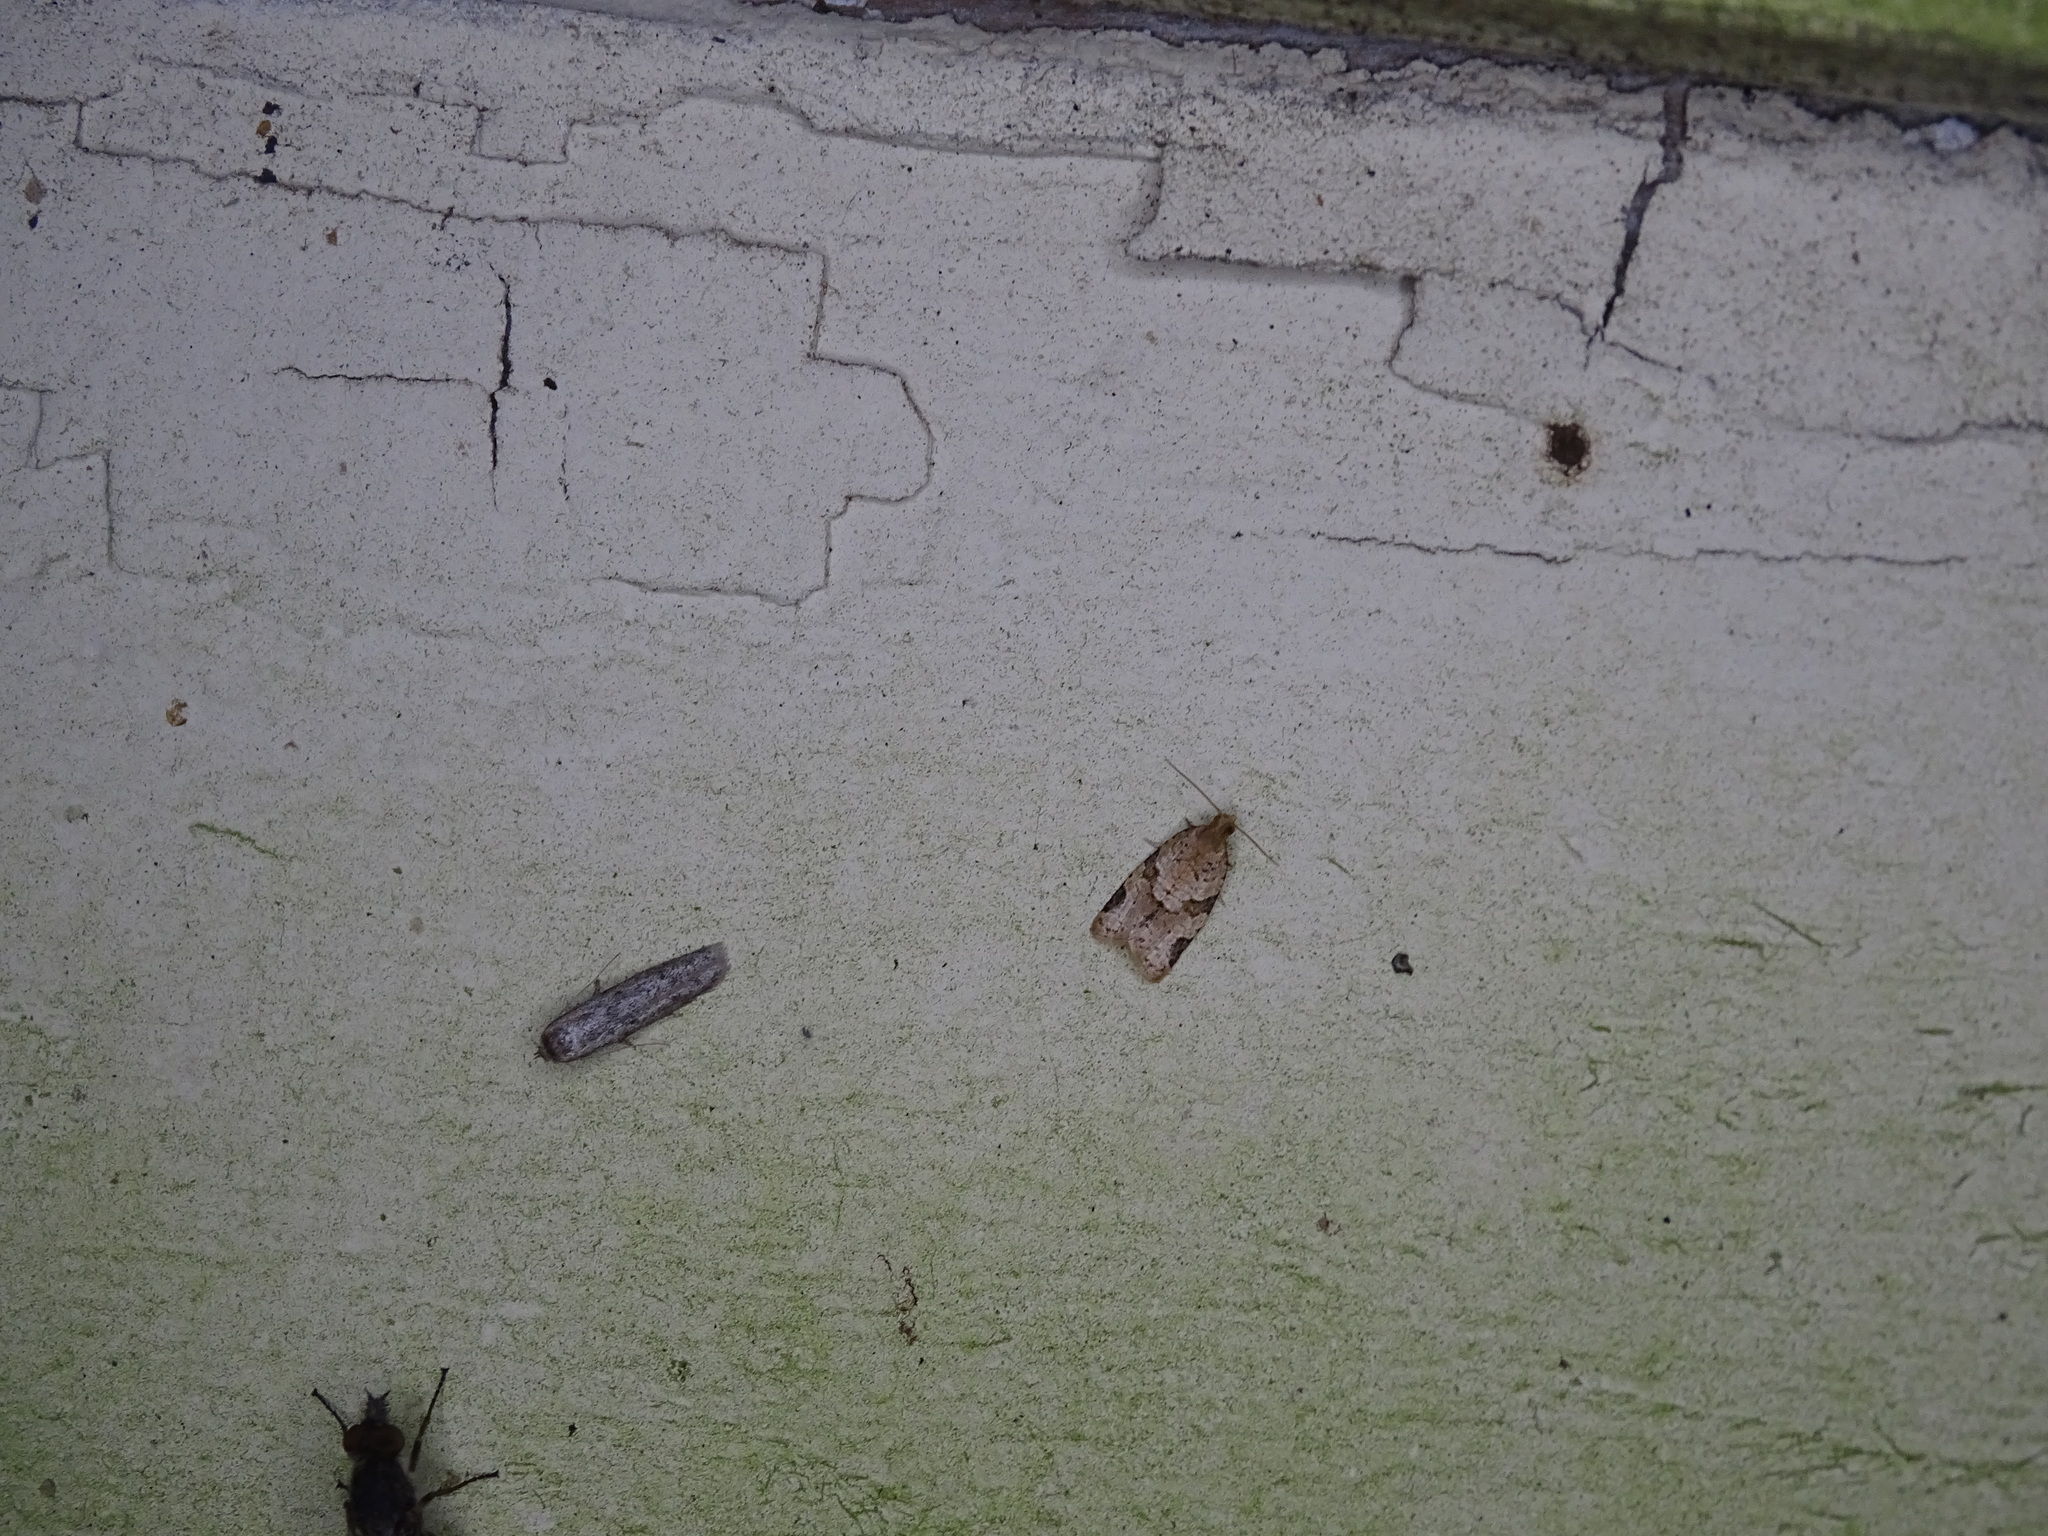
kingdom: Animalia
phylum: Arthropoda
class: Insecta
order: Lepidoptera
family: Tortricidae
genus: Clepsis
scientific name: Clepsis peritana
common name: Garden tortrix
